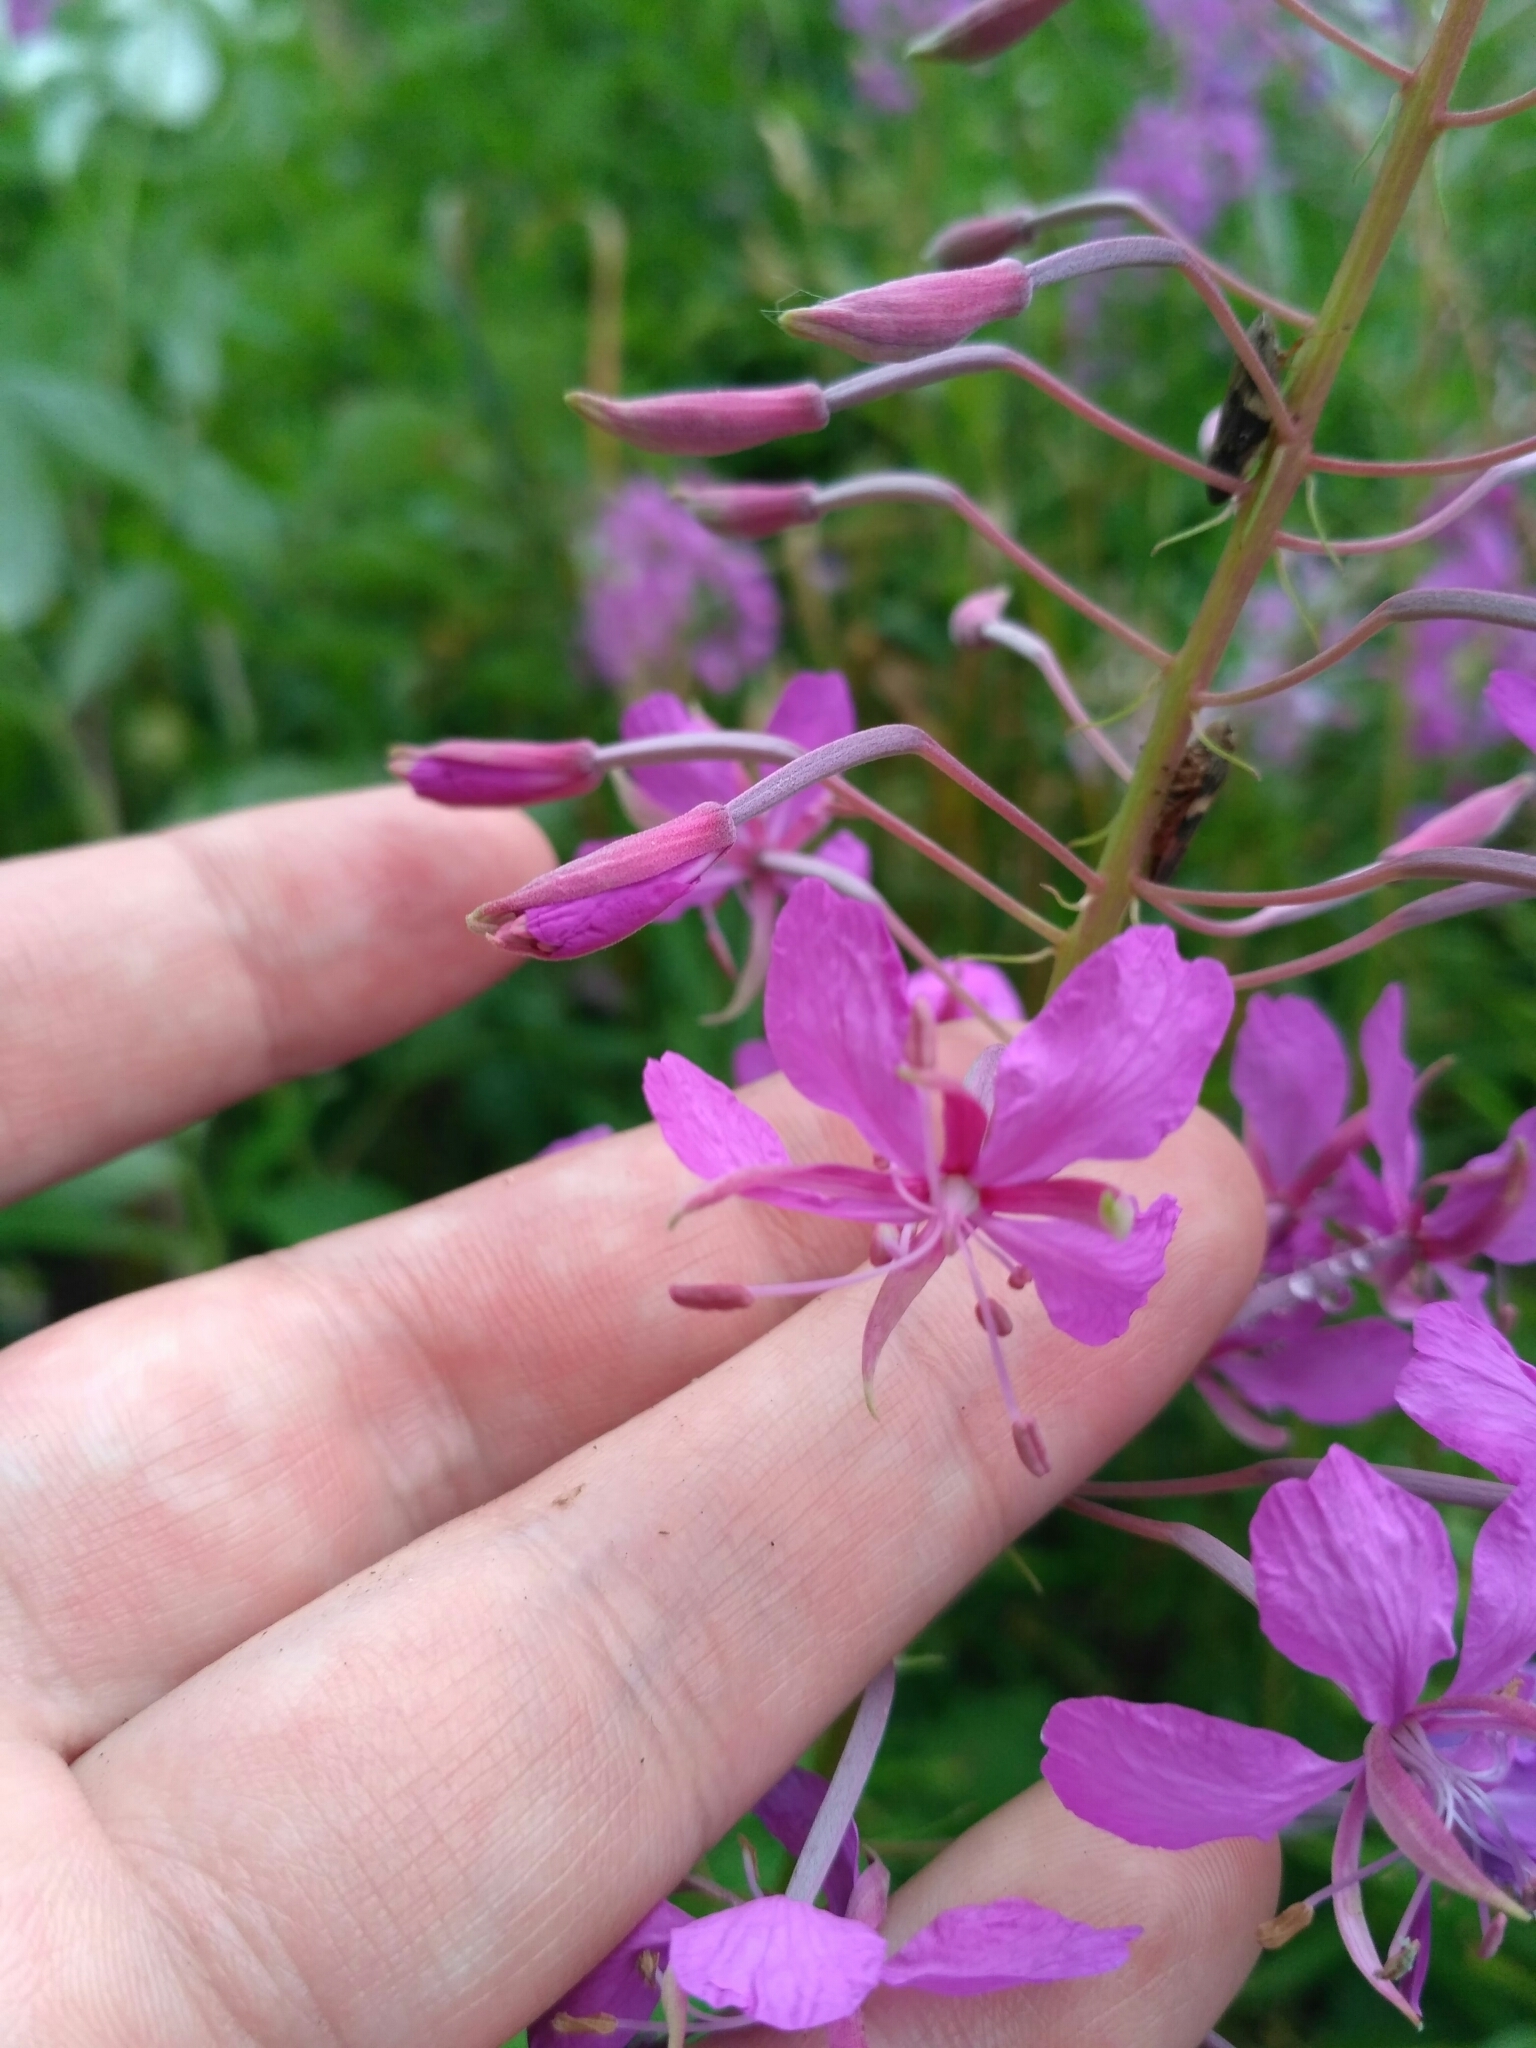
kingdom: Plantae
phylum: Tracheophyta
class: Magnoliopsida
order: Myrtales
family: Onagraceae
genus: Chamaenerion
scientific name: Chamaenerion angustifolium
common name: Fireweed
